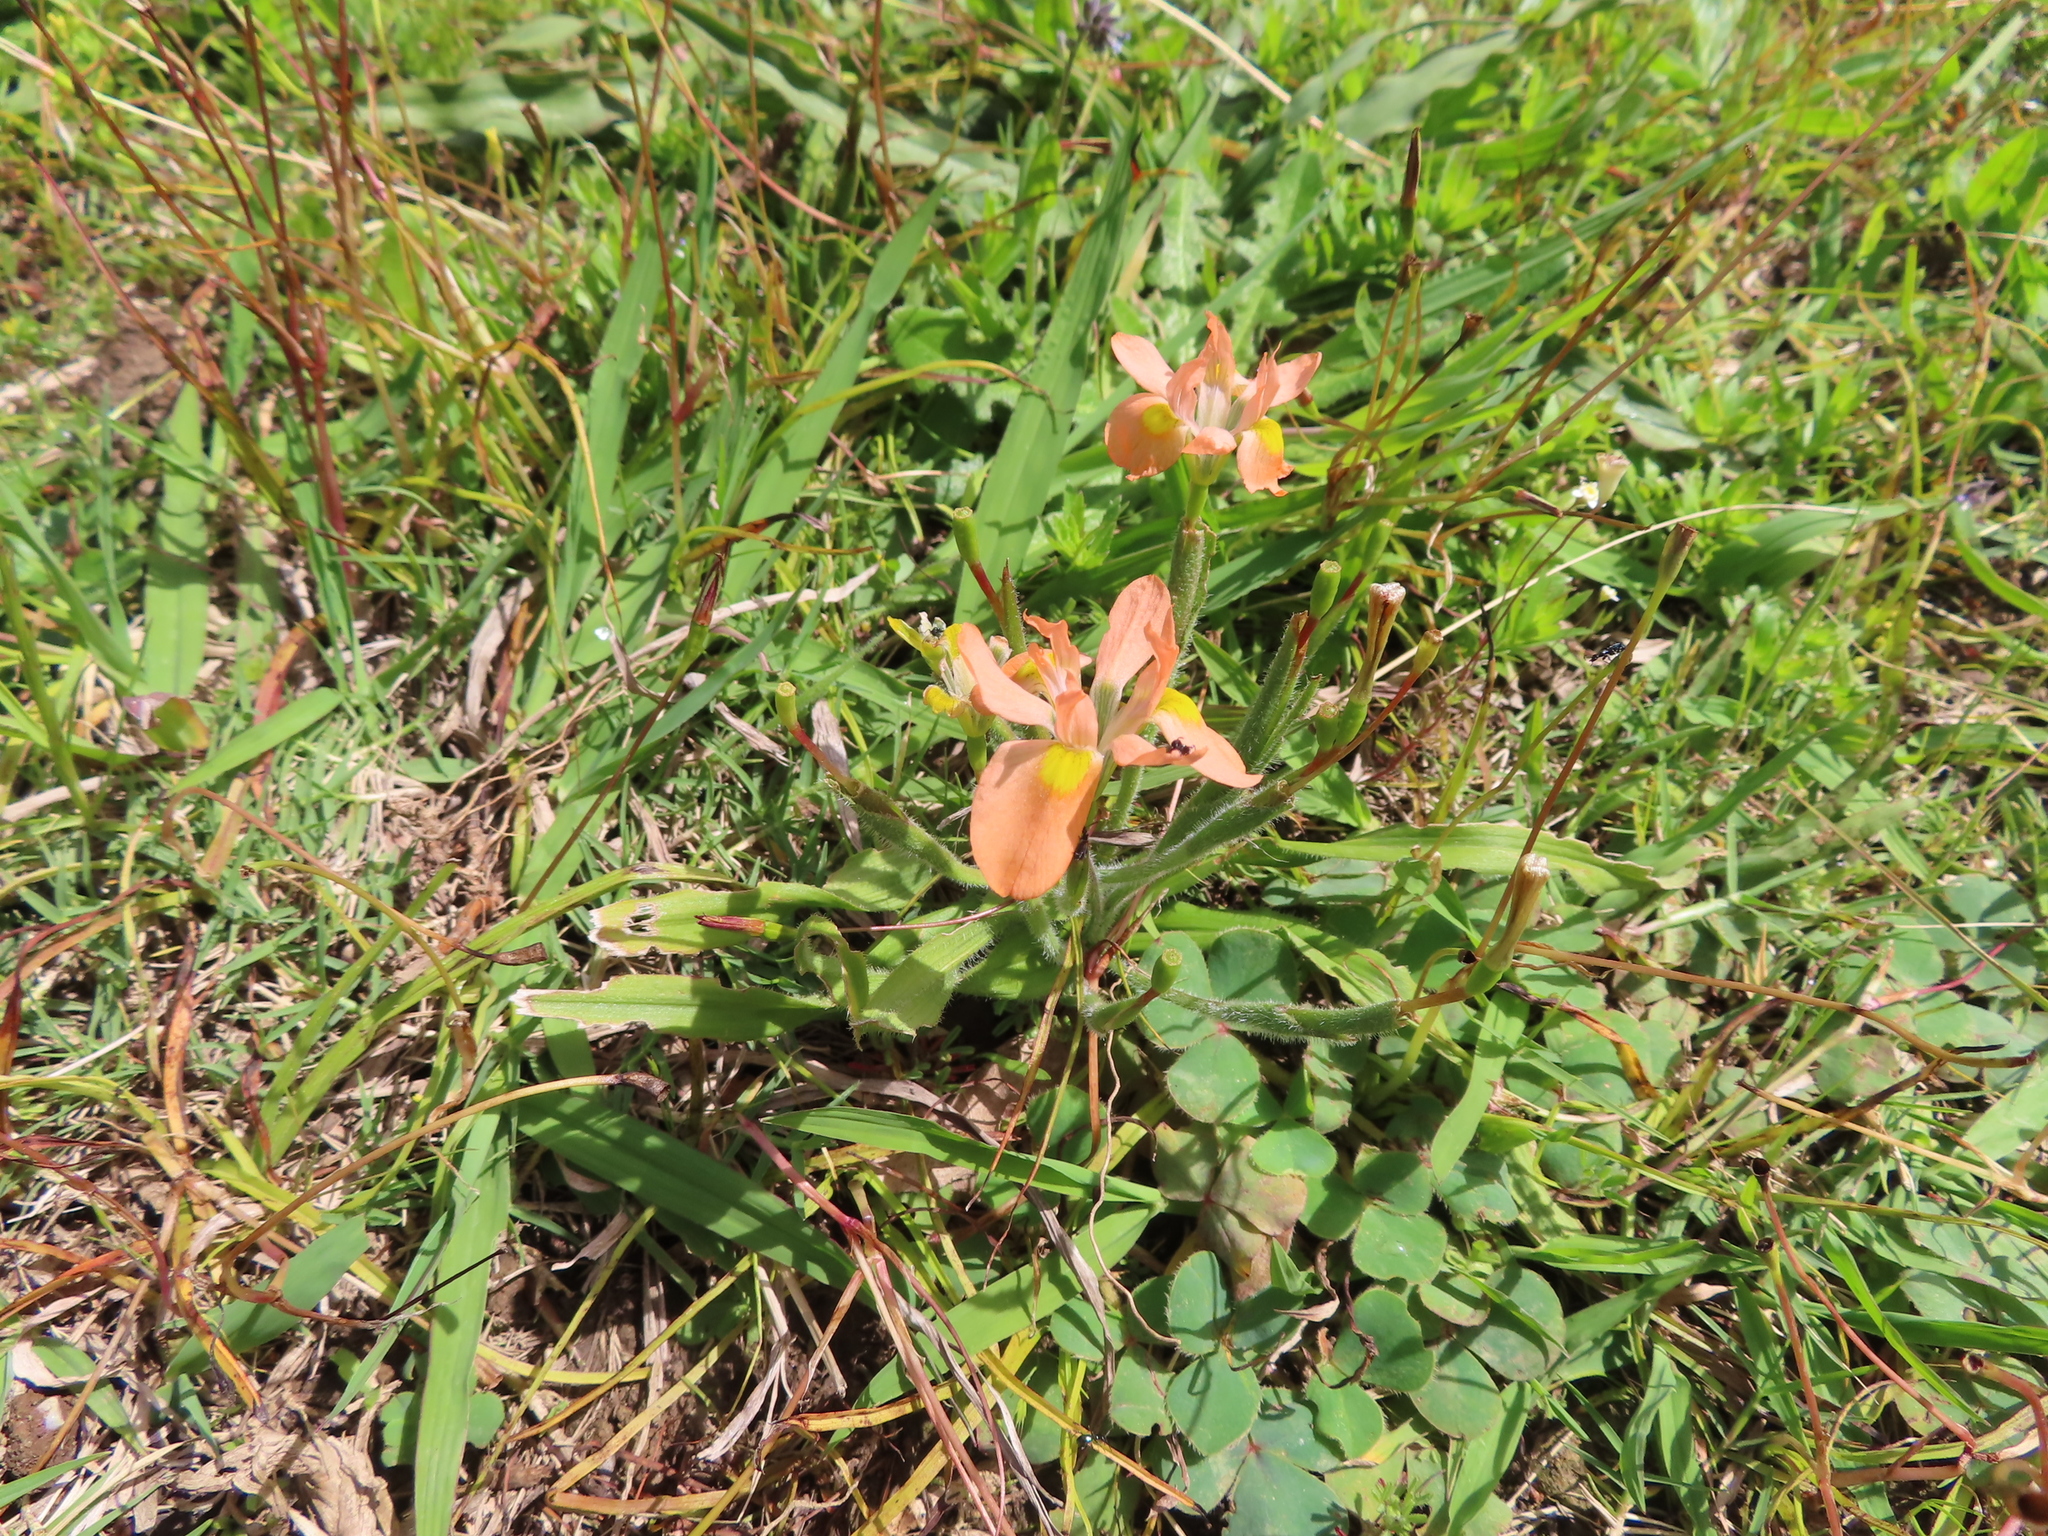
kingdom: Plantae
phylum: Tracheophyta
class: Liliopsida
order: Asparagales
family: Iridaceae
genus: Moraea
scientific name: Moraea papilionacea
